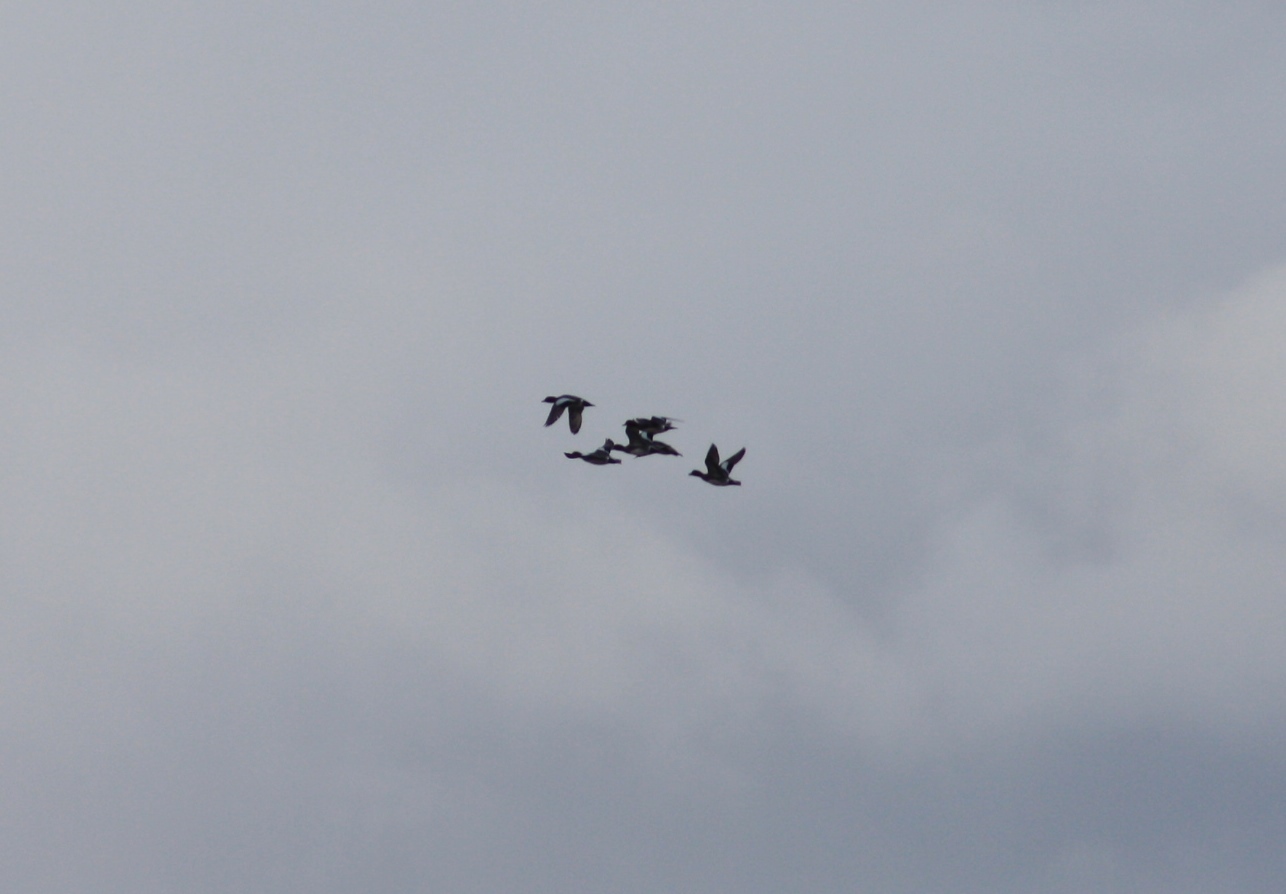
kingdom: Animalia
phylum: Chordata
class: Aves
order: Anseriformes
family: Anatidae
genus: Mareca
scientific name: Mareca penelope
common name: Eurasian wigeon
